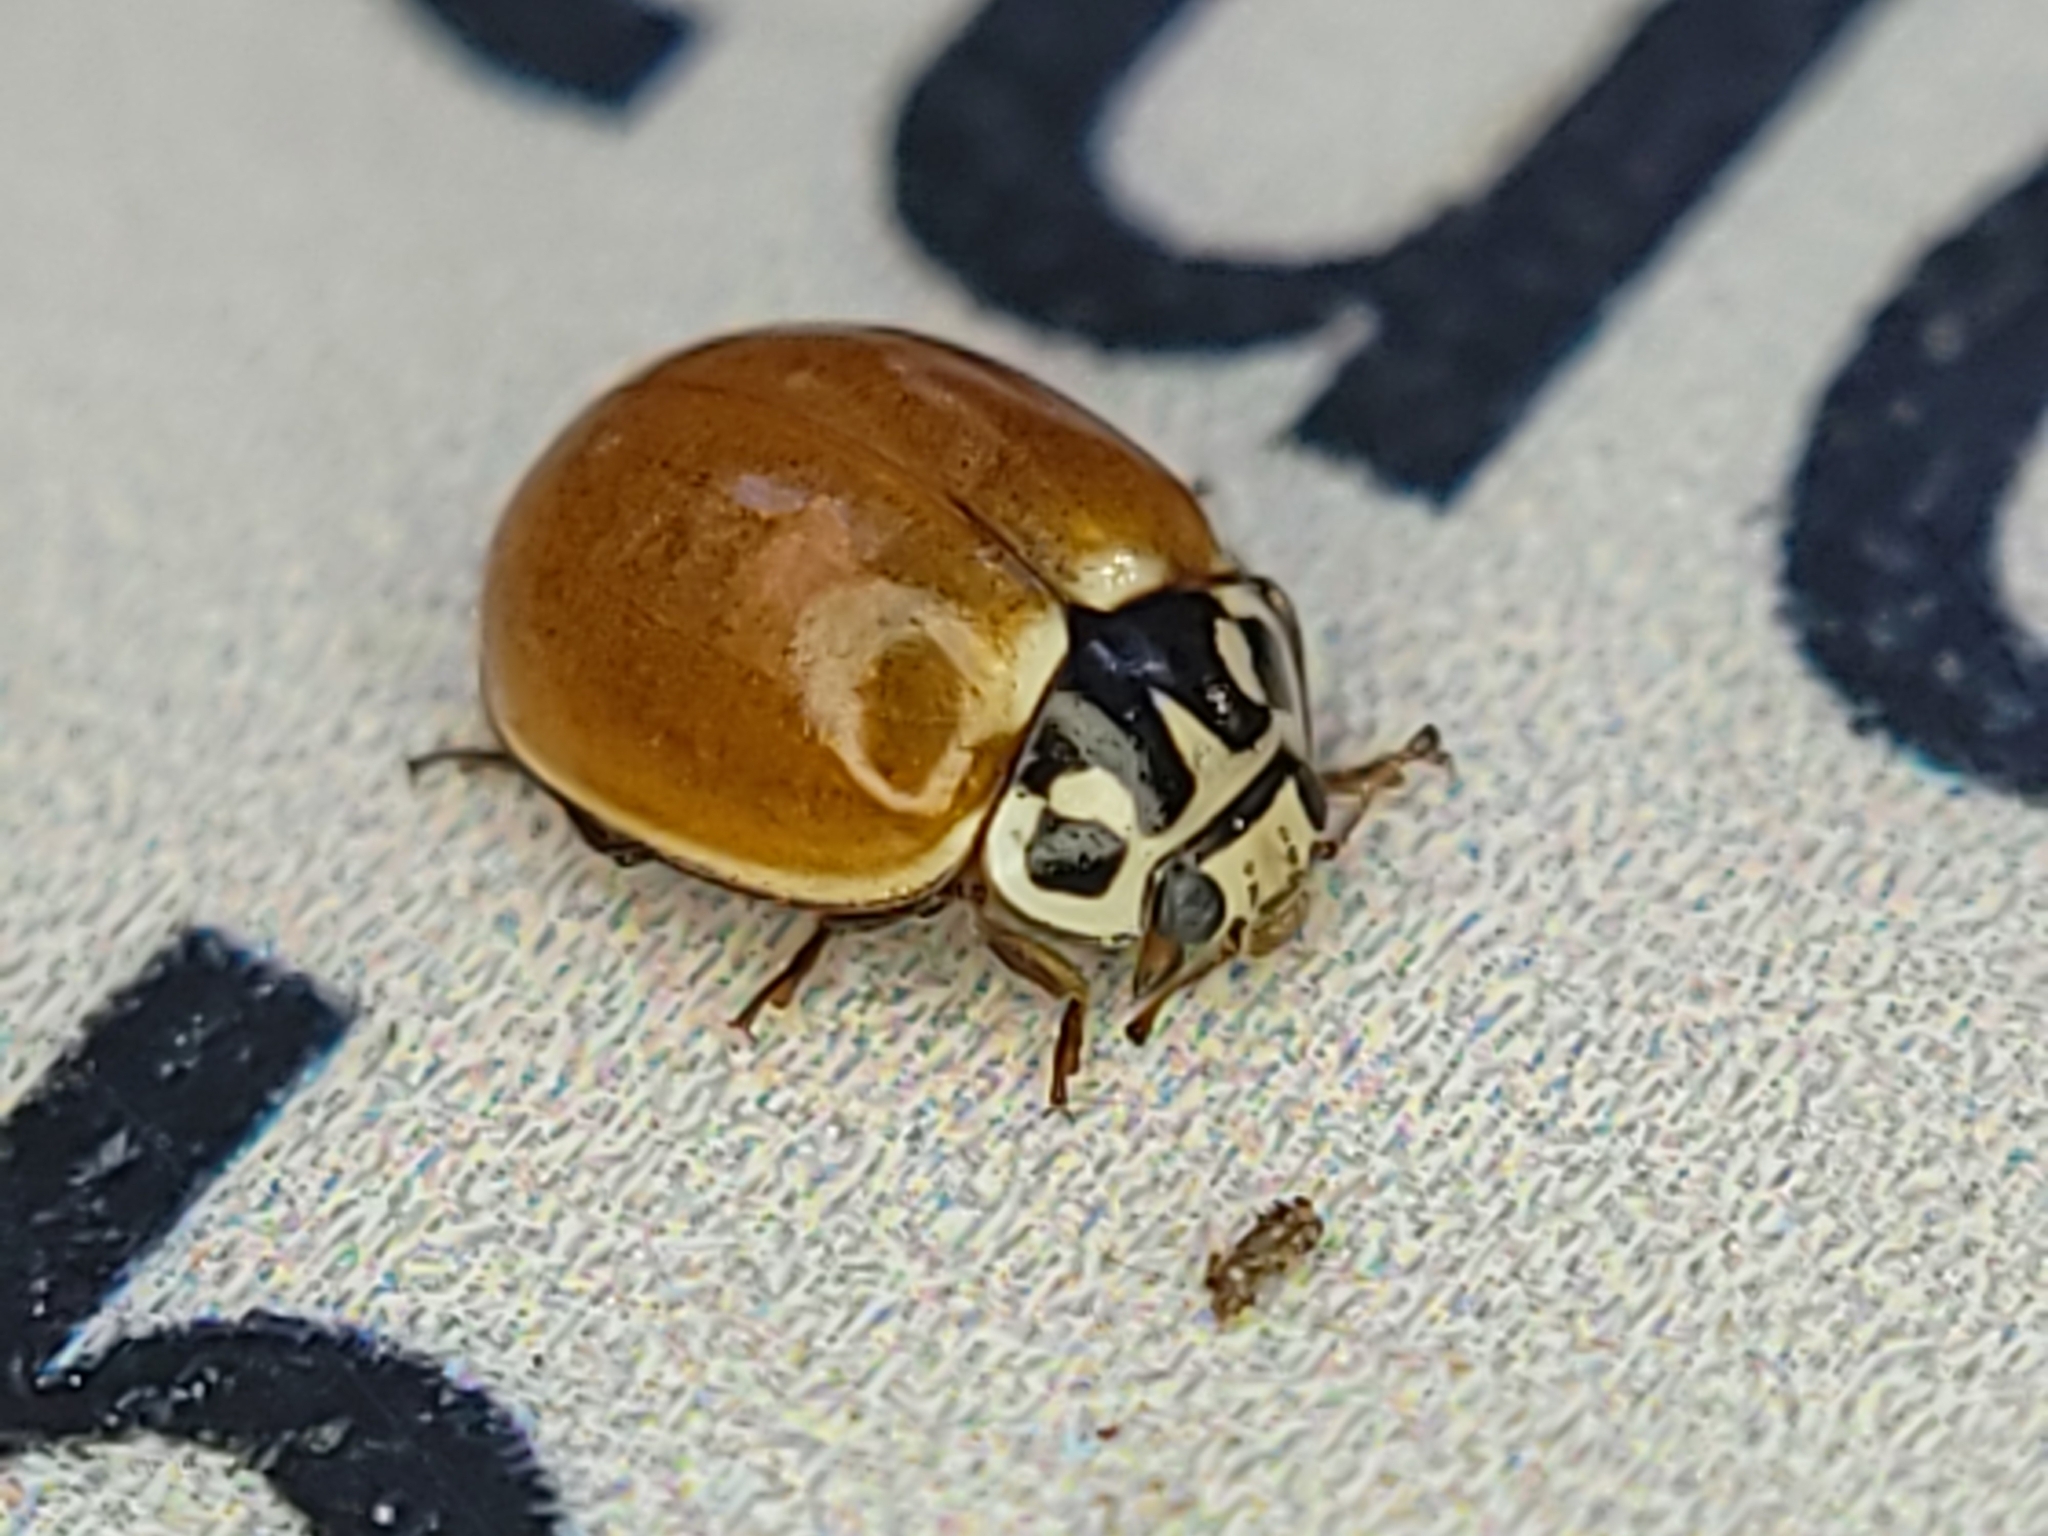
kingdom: Animalia
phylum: Arthropoda
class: Insecta
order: Coleoptera
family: Coccinellidae
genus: Cycloneda
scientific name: Cycloneda polita
